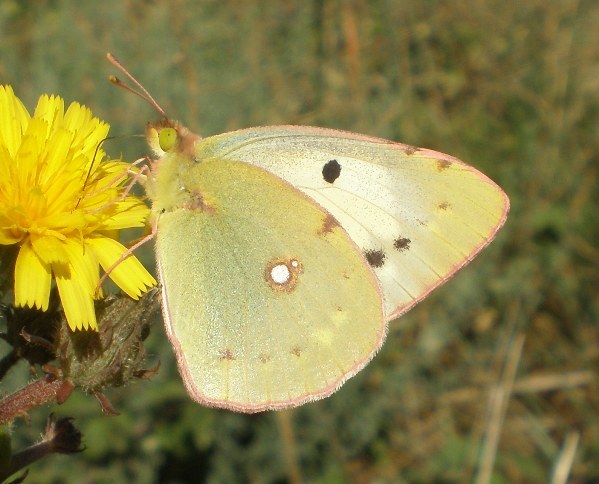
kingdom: Animalia
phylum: Arthropoda
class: Insecta
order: Lepidoptera
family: Pieridae
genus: Colias
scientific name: Colias croceus
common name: Clouded yellow
